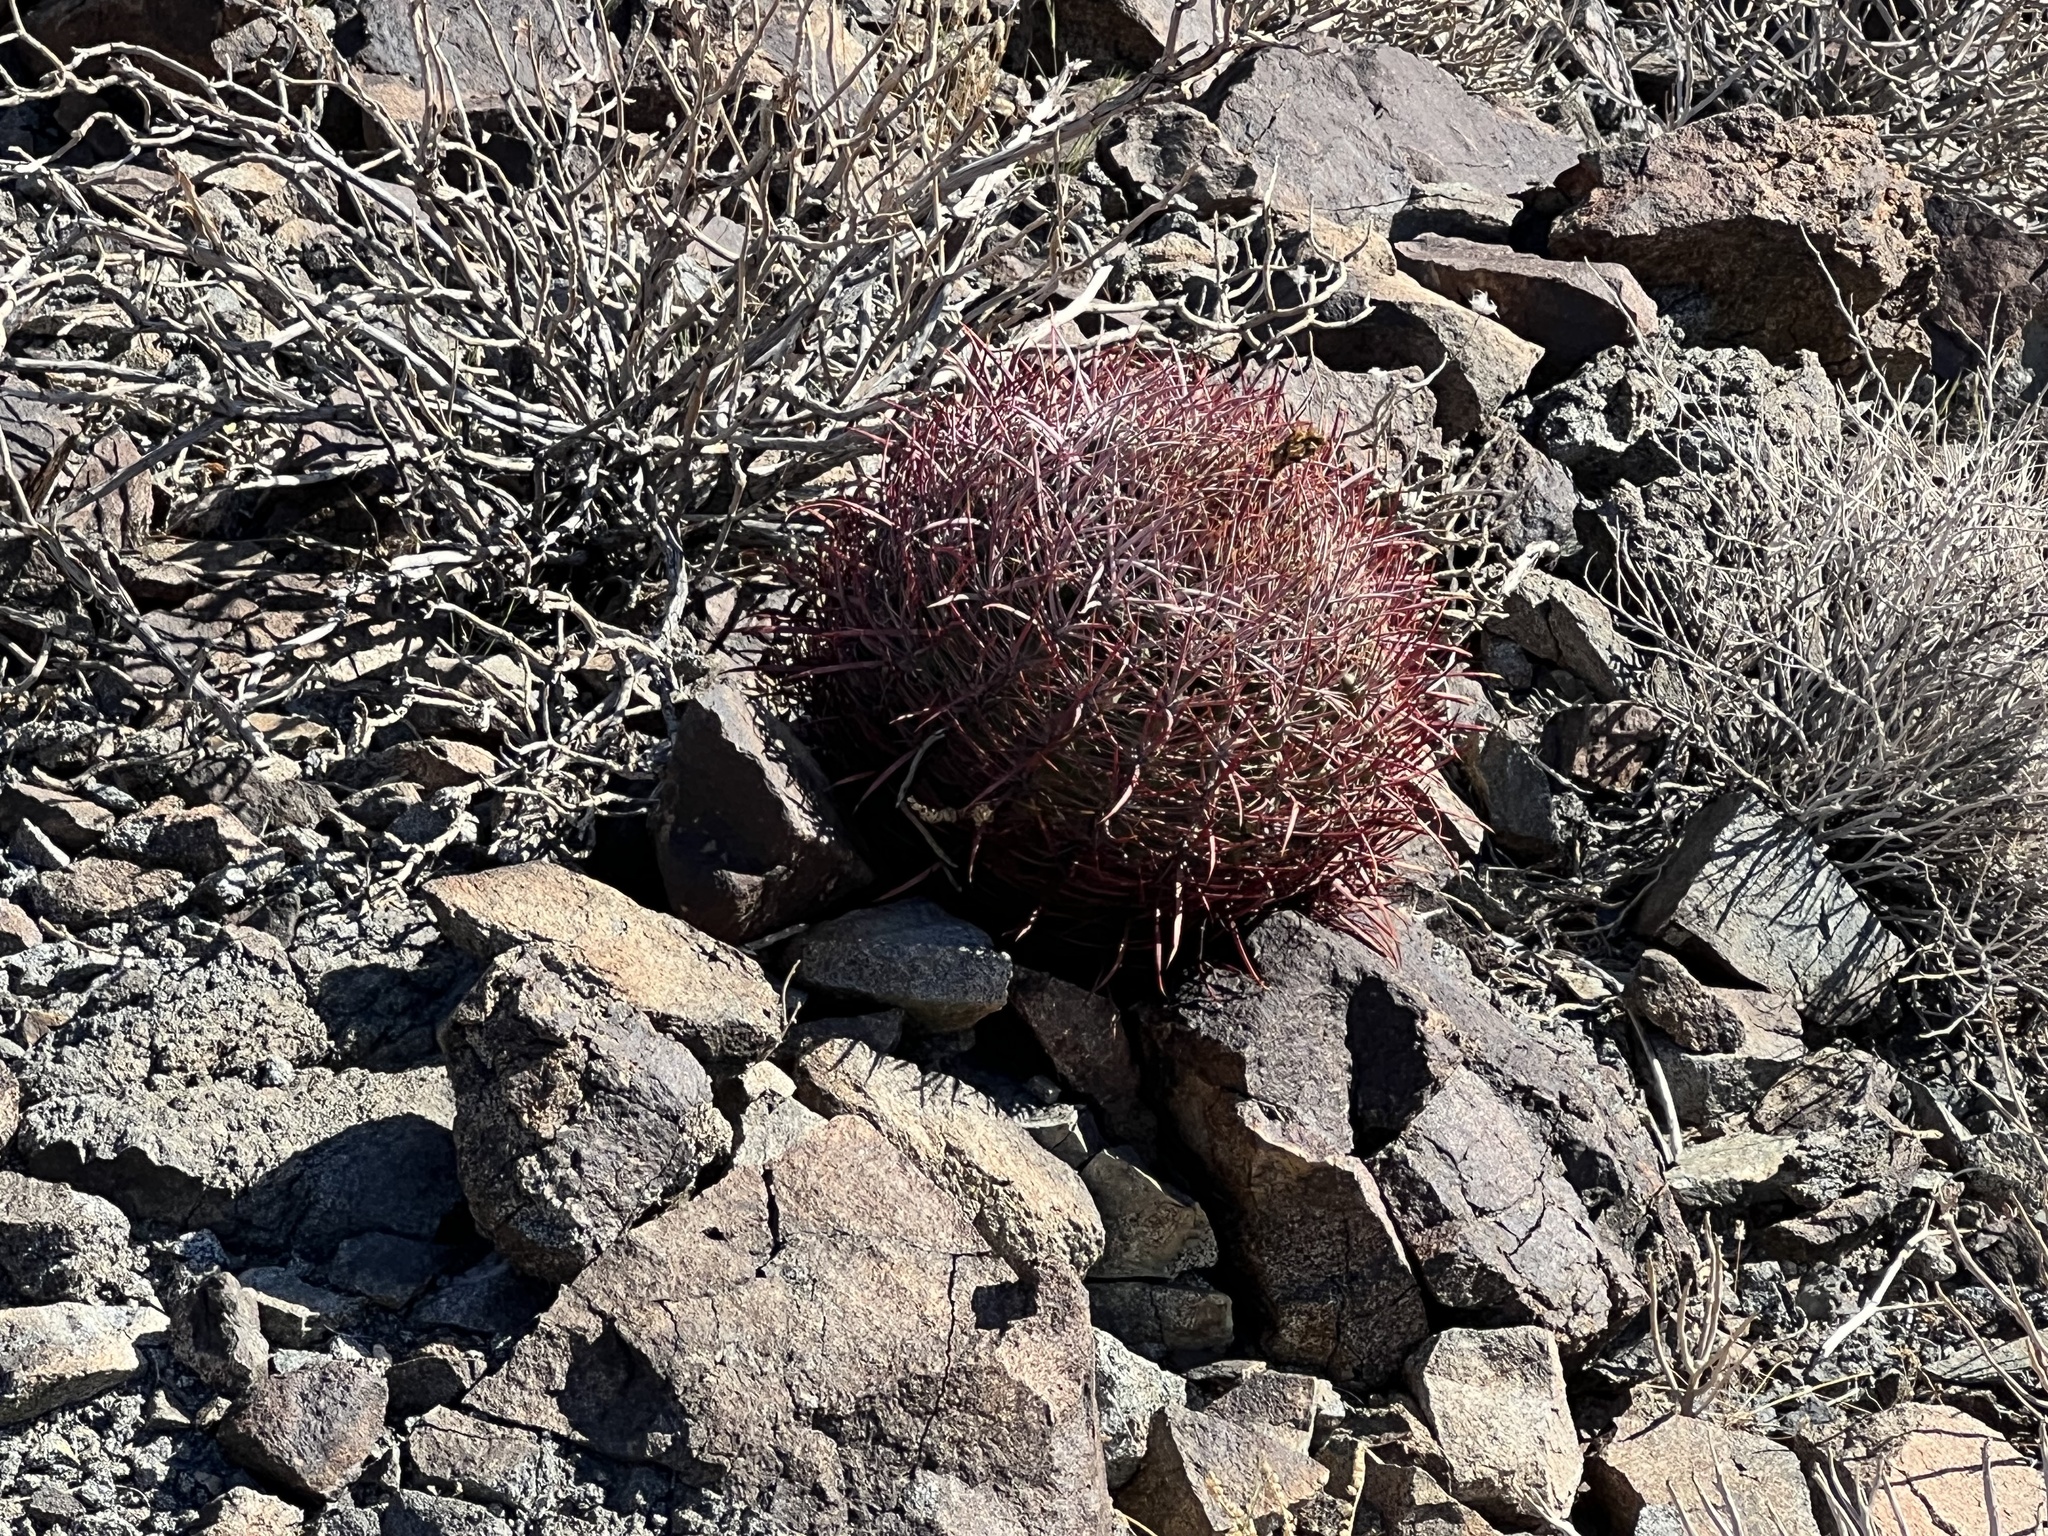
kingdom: Plantae
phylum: Tracheophyta
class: Magnoliopsida
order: Caryophyllales
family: Cactaceae
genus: Ferocactus
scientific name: Ferocactus cylindraceus
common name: California barrel cactus
